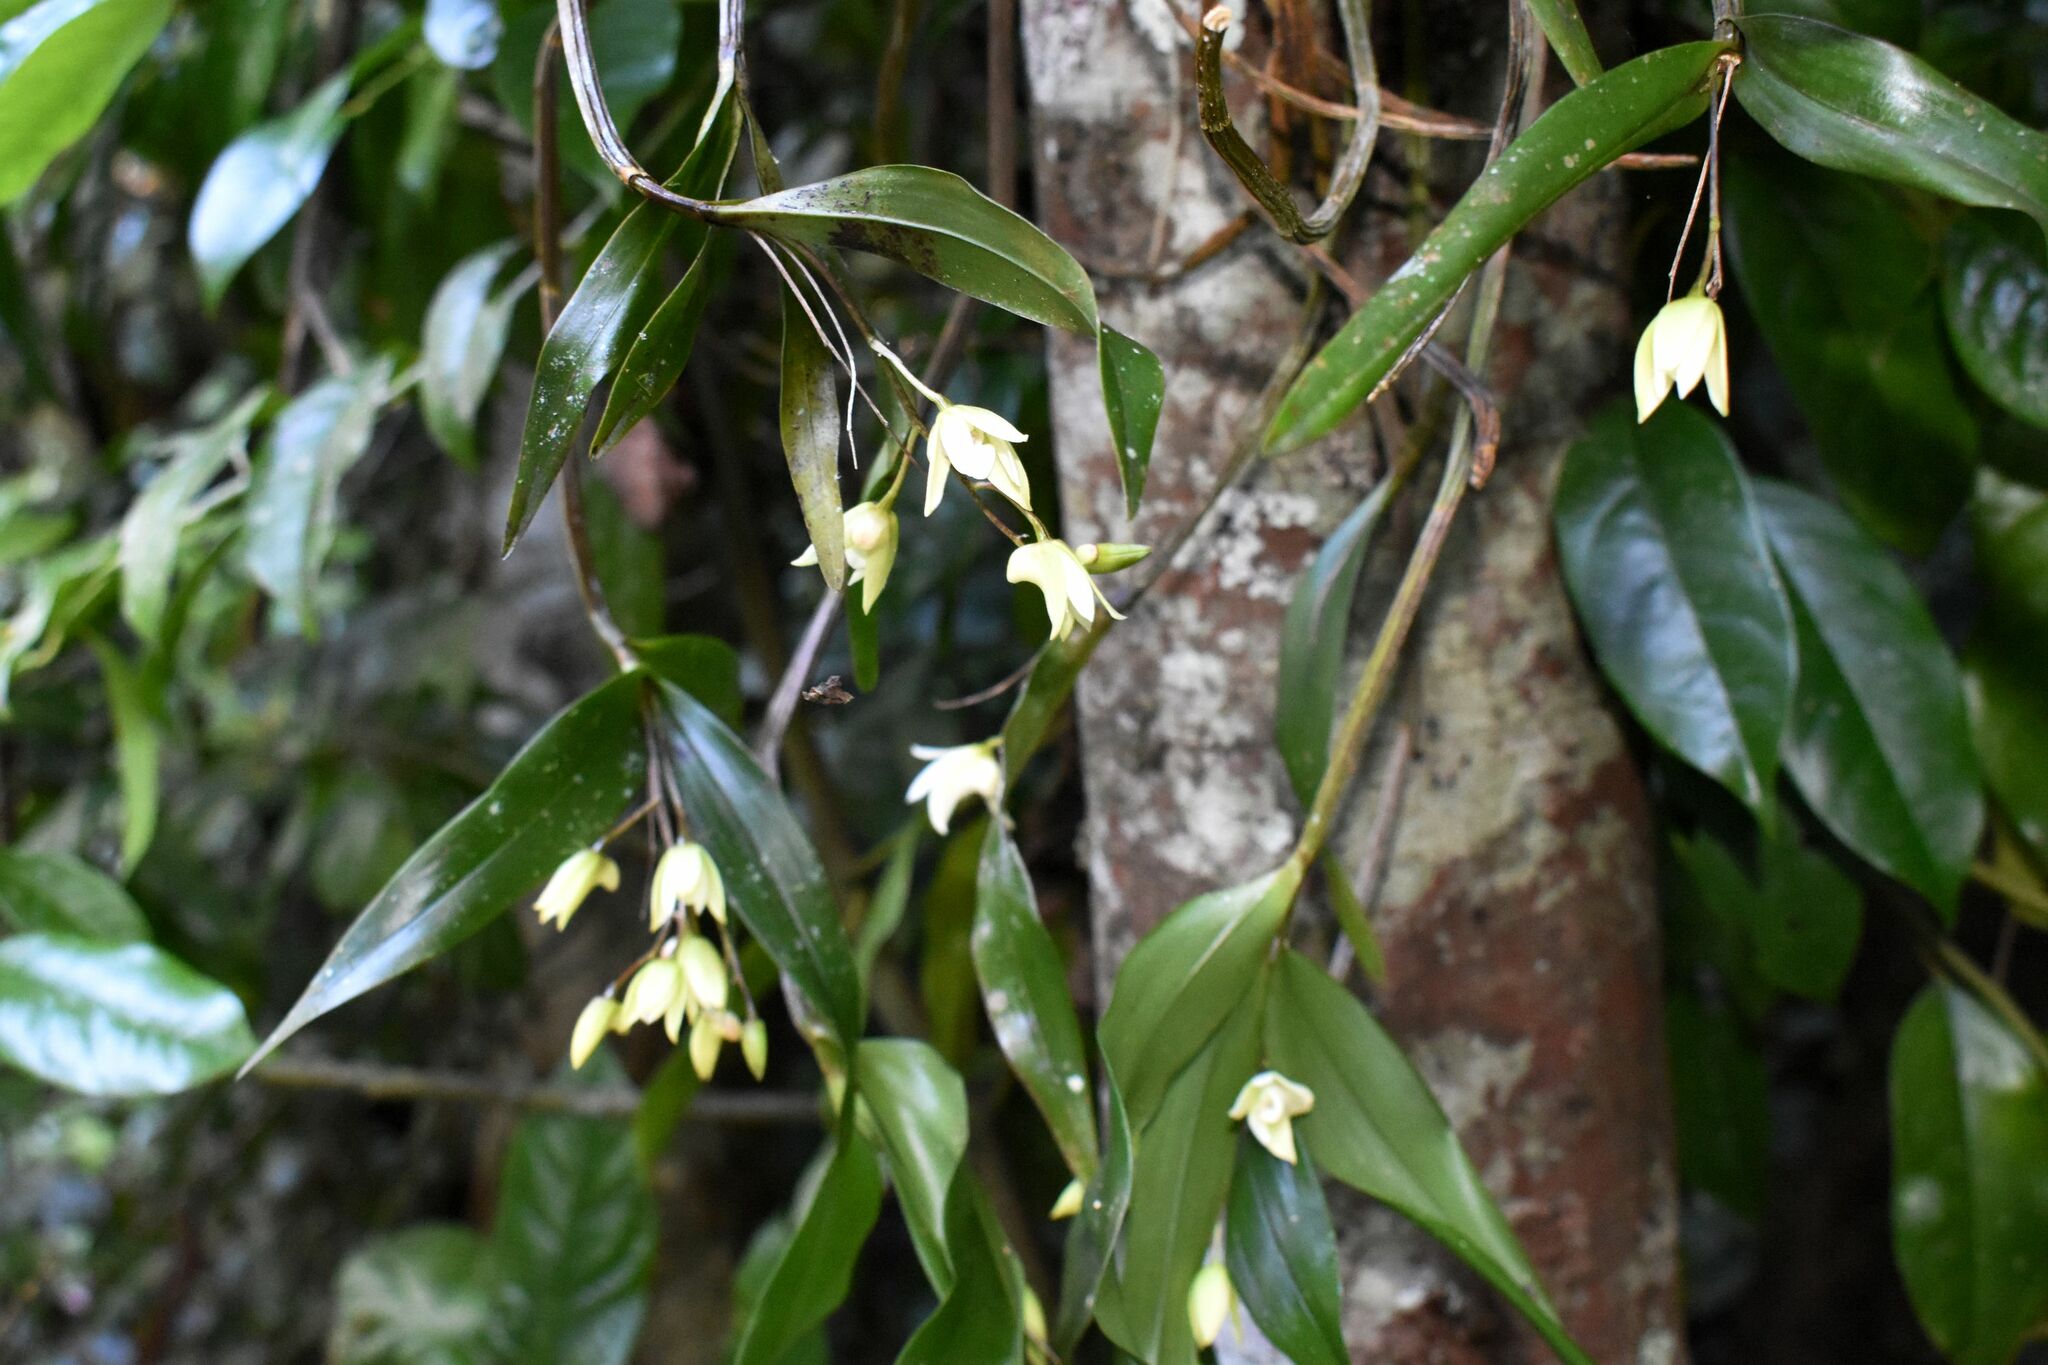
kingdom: Plantae
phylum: Tracheophyta
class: Liliopsida
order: Asparagales
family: Orchidaceae
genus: Dendrobium
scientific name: Dendrobium adae
